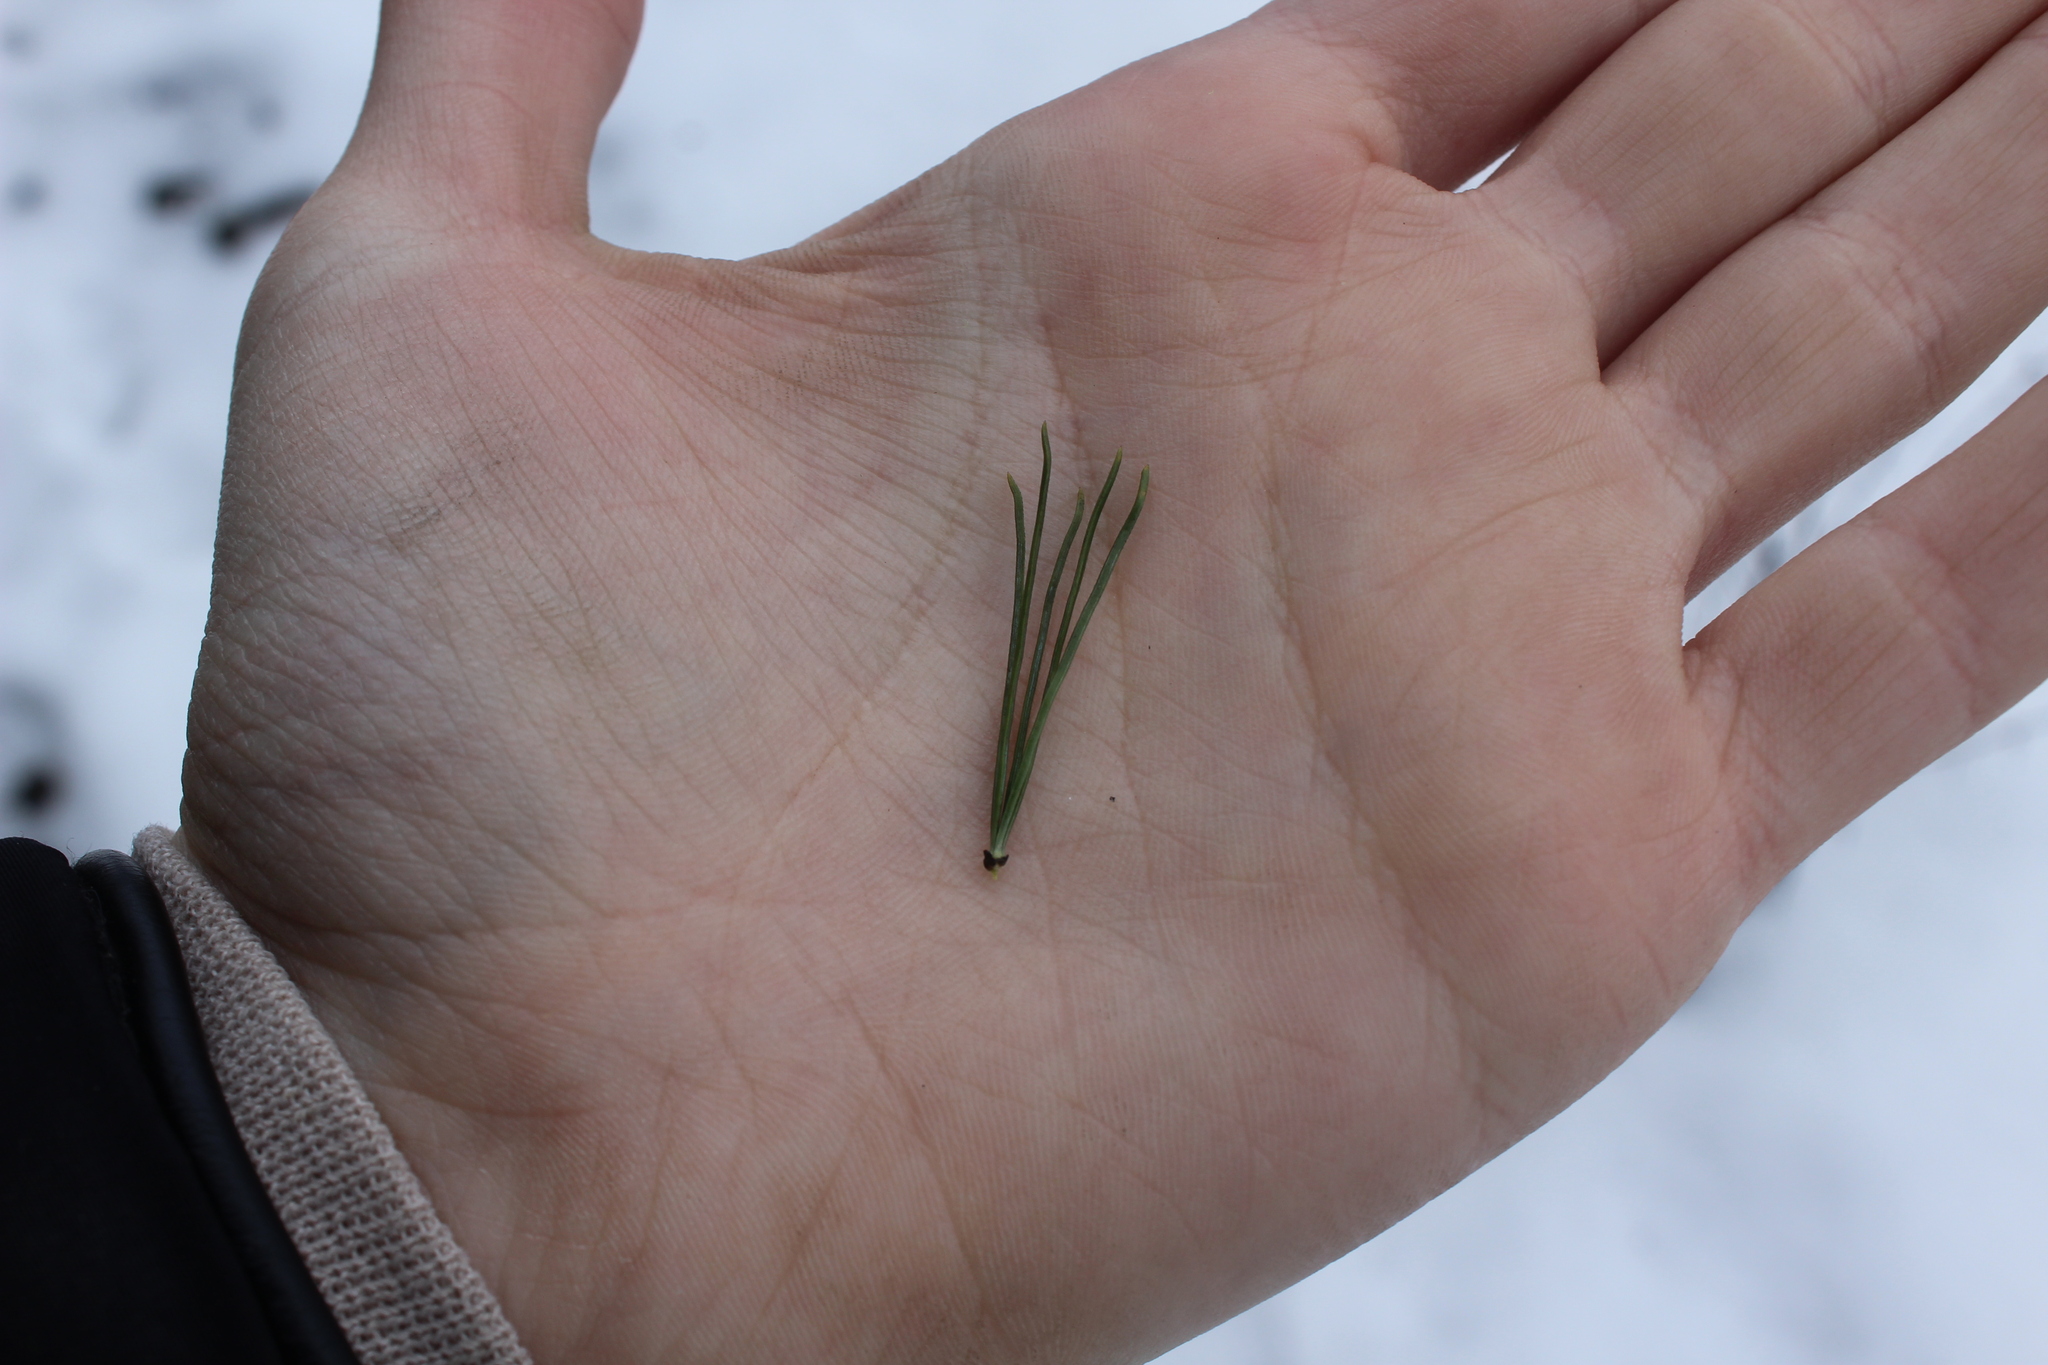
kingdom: Plantae
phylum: Tracheophyta
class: Pinopsida
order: Pinales
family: Pinaceae
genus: Pinus
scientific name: Pinus strobus
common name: Weymouth pine
